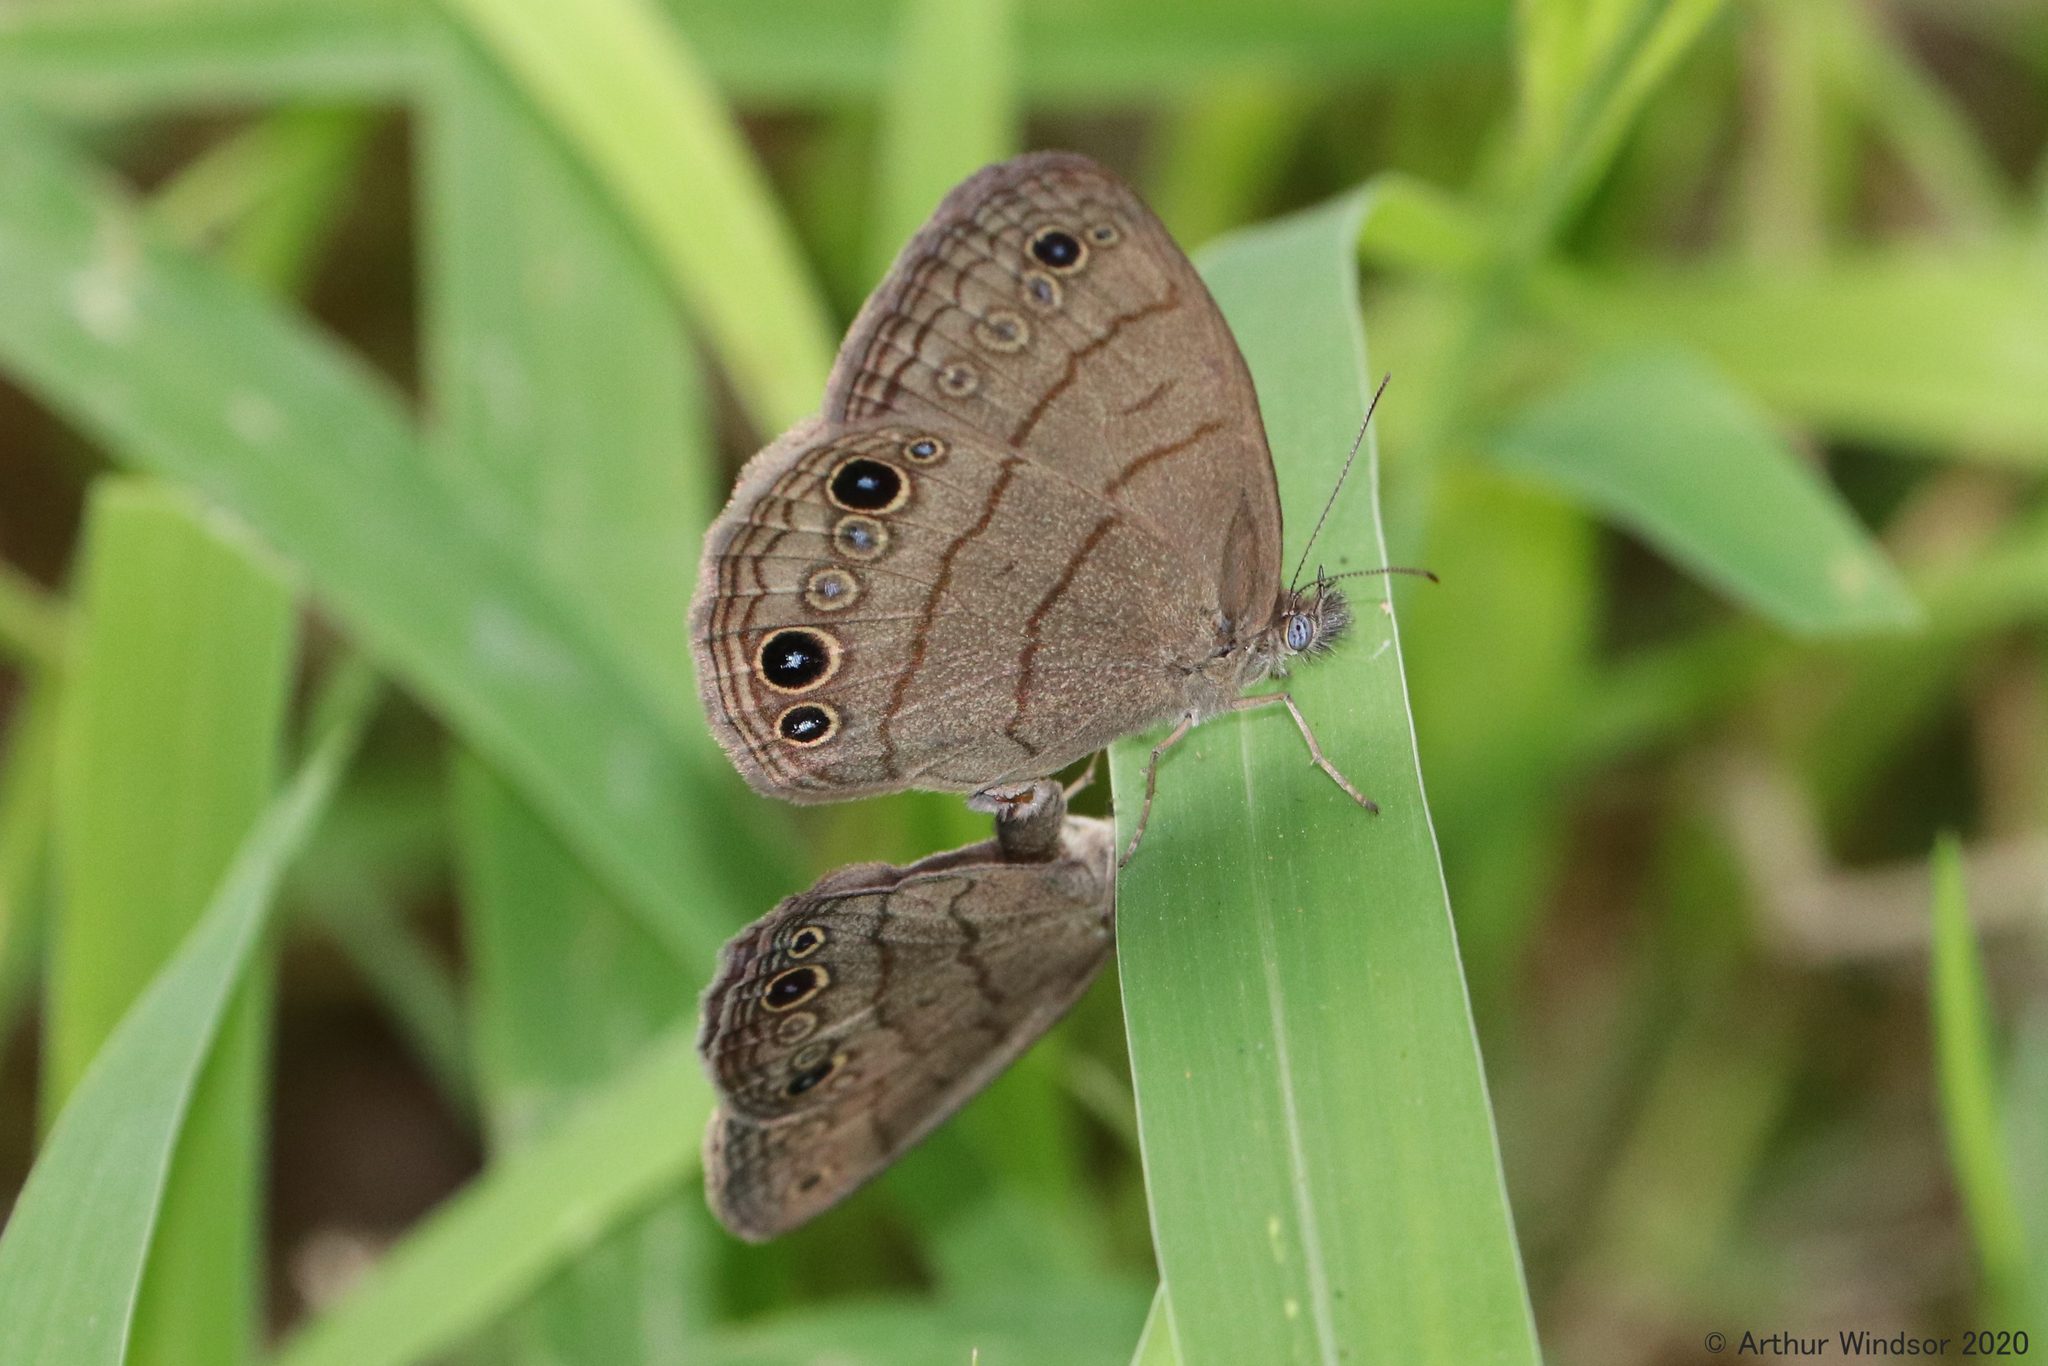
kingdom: Animalia
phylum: Arthropoda
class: Insecta
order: Lepidoptera
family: Nymphalidae
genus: Hermeuptychia
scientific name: Hermeuptychia hermes
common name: Hermes satyr
